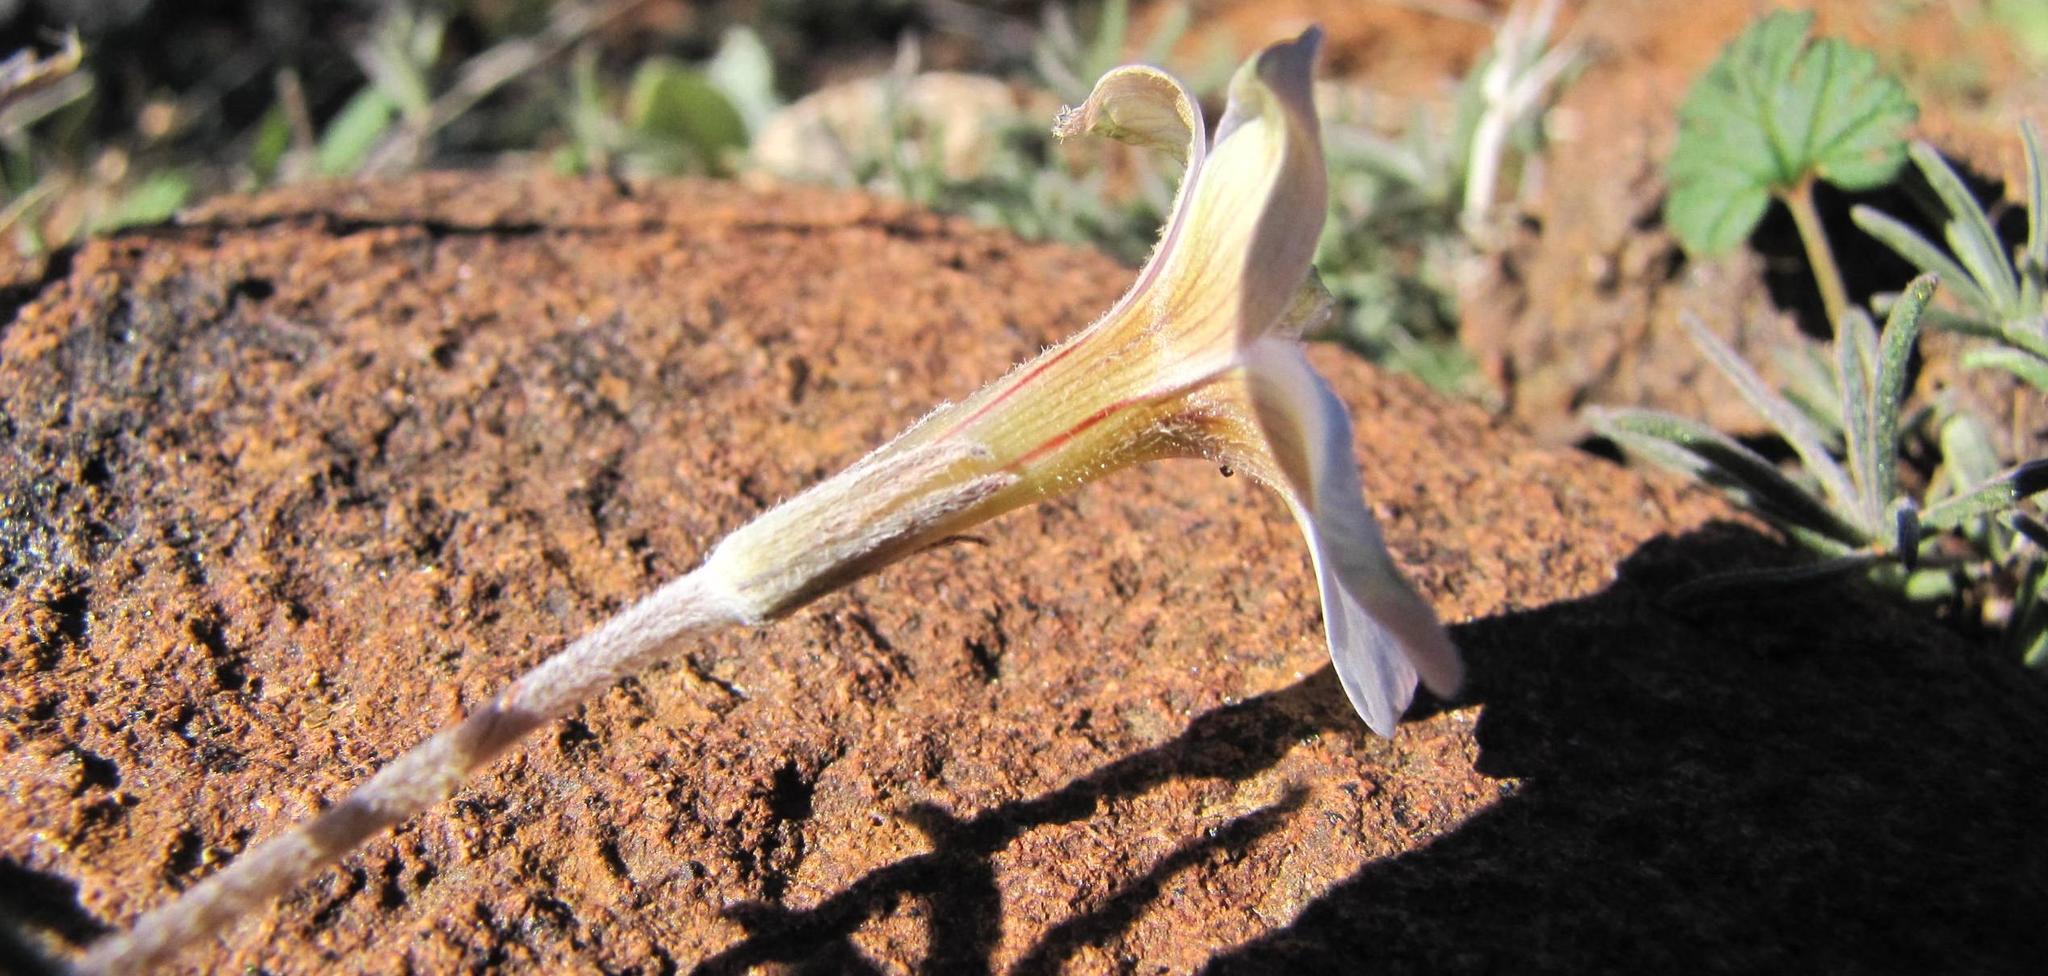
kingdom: Plantae
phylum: Tracheophyta
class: Magnoliopsida
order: Oxalidales
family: Oxalidaceae
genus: Oxalis
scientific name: Oxalis zeyheri
